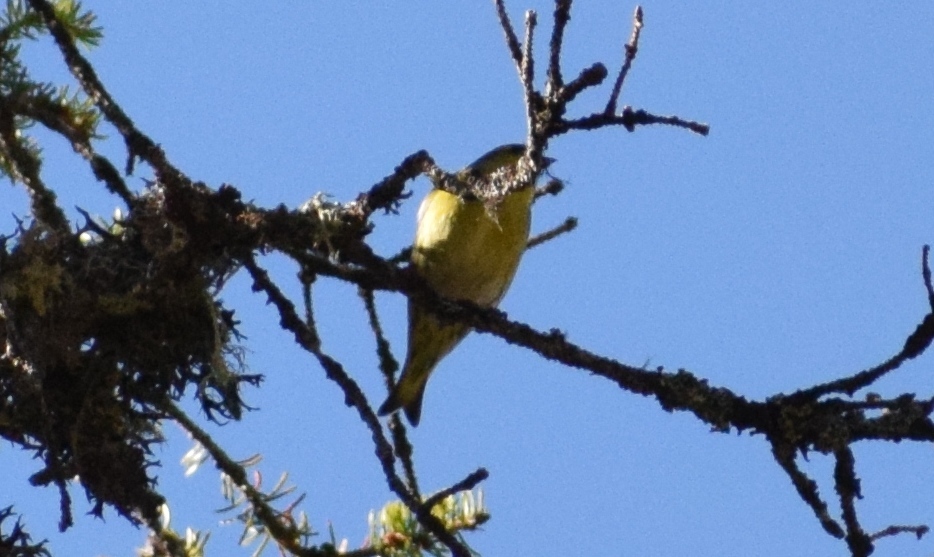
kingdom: Animalia
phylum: Chordata
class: Aves
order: Passeriformes
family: Fringillidae
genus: Spinus
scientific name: Spinus spinus
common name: Eurasian siskin
